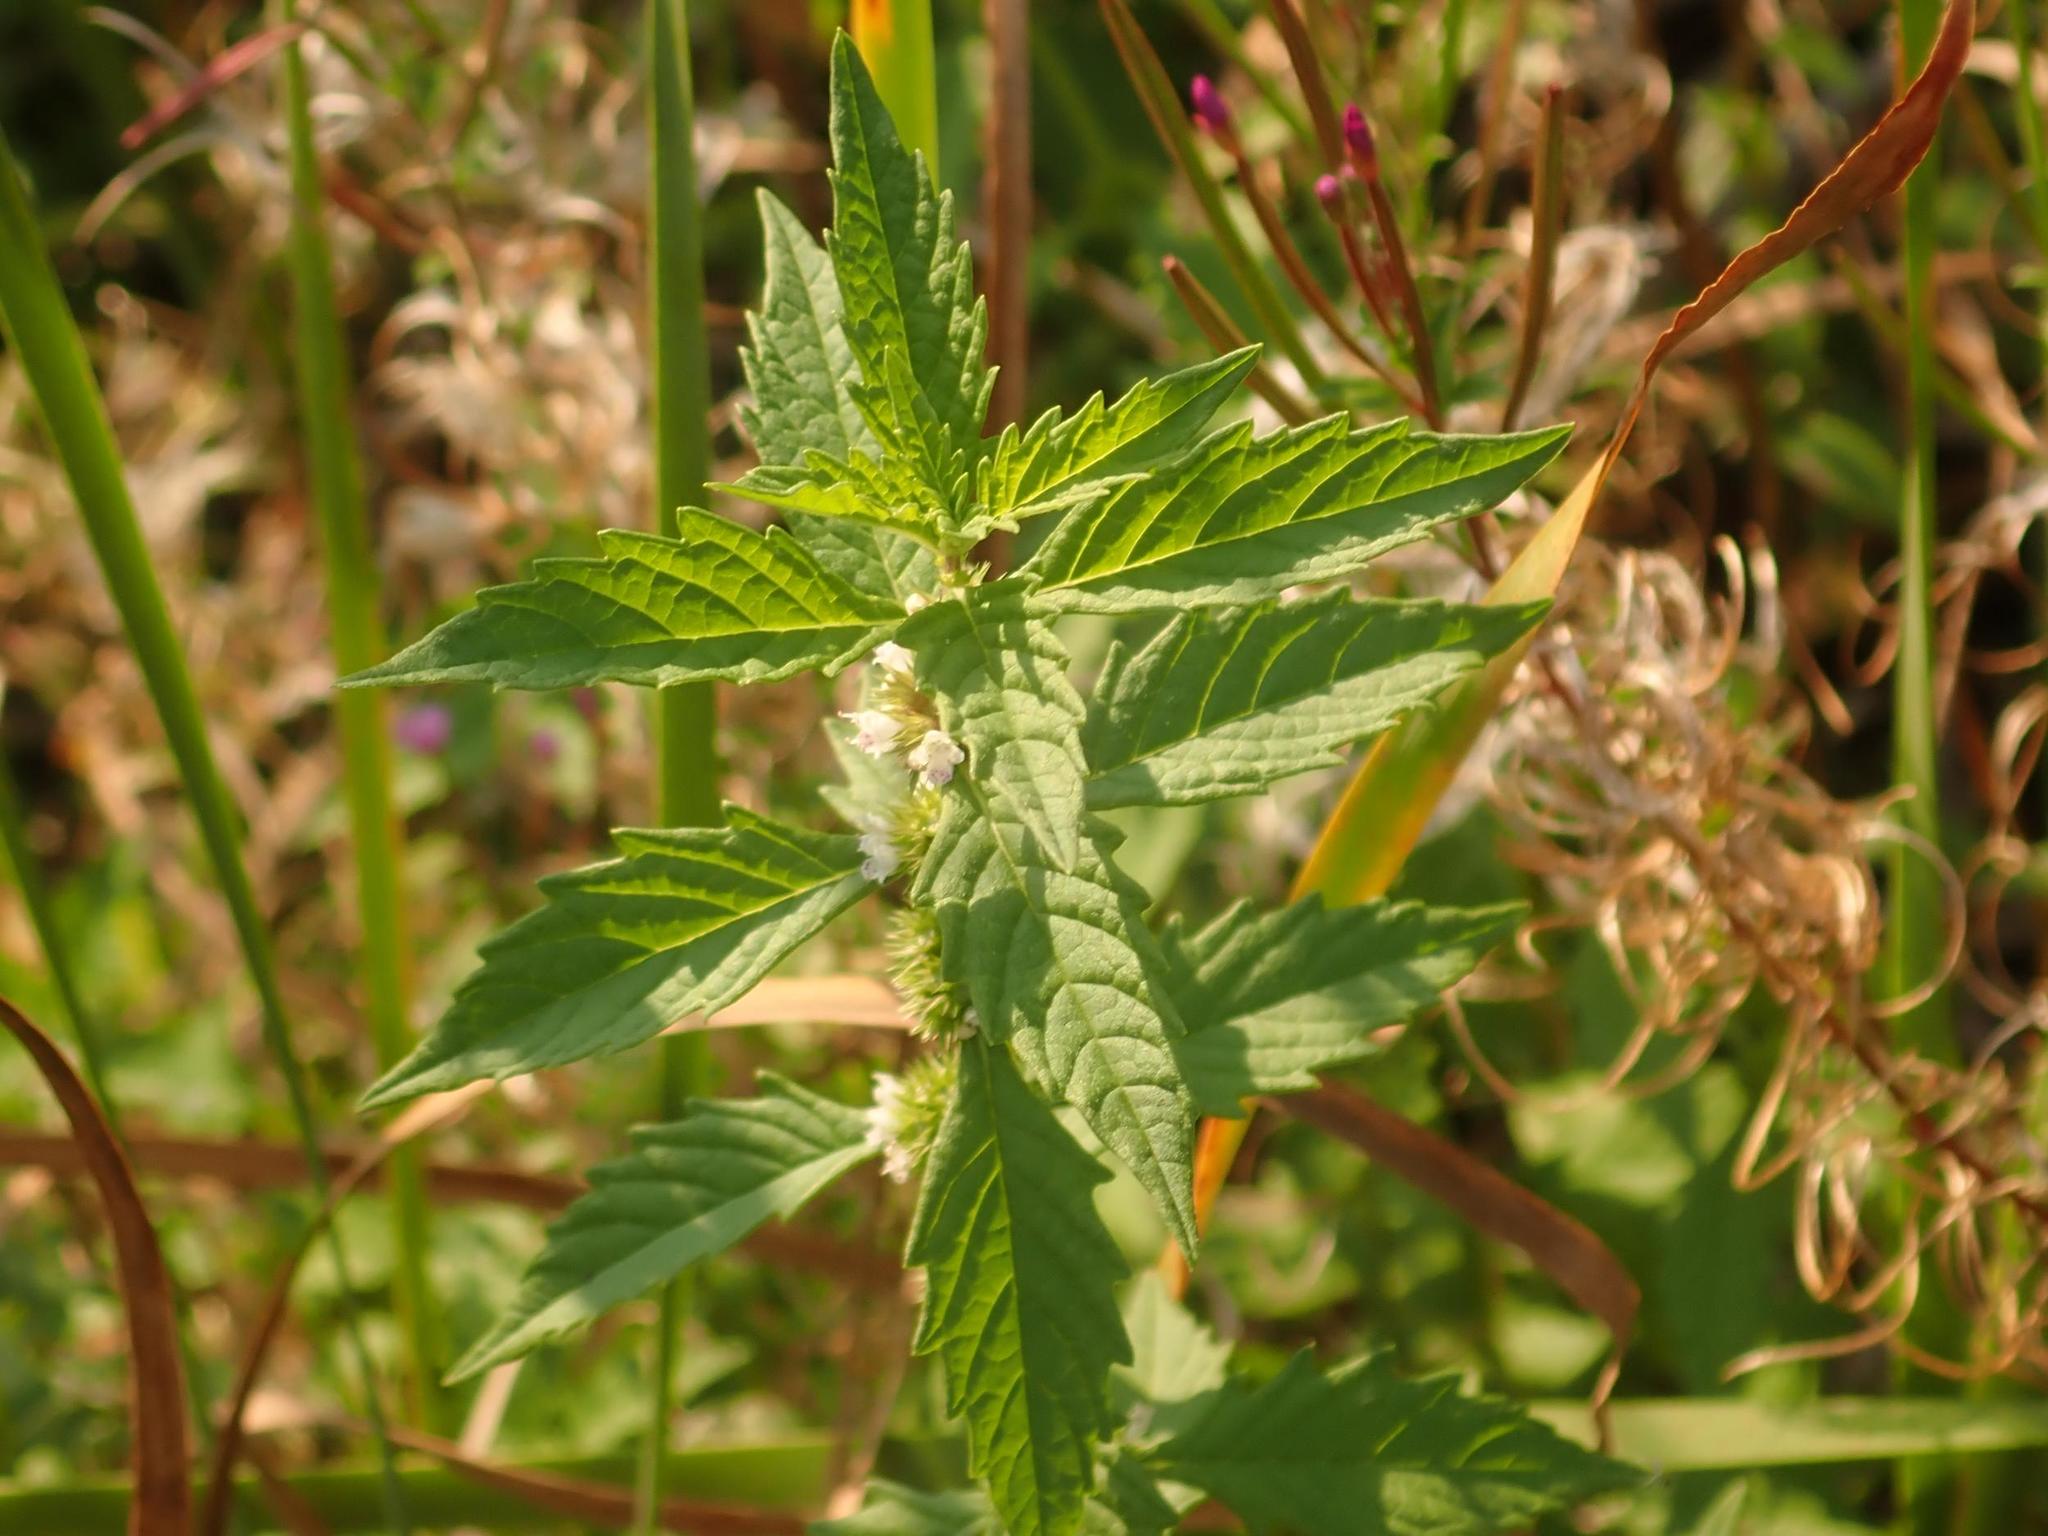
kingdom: Plantae
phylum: Tracheophyta
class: Magnoliopsida
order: Lamiales
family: Lamiaceae
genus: Lycopus
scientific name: Lycopus europaeus
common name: European bugleweed
